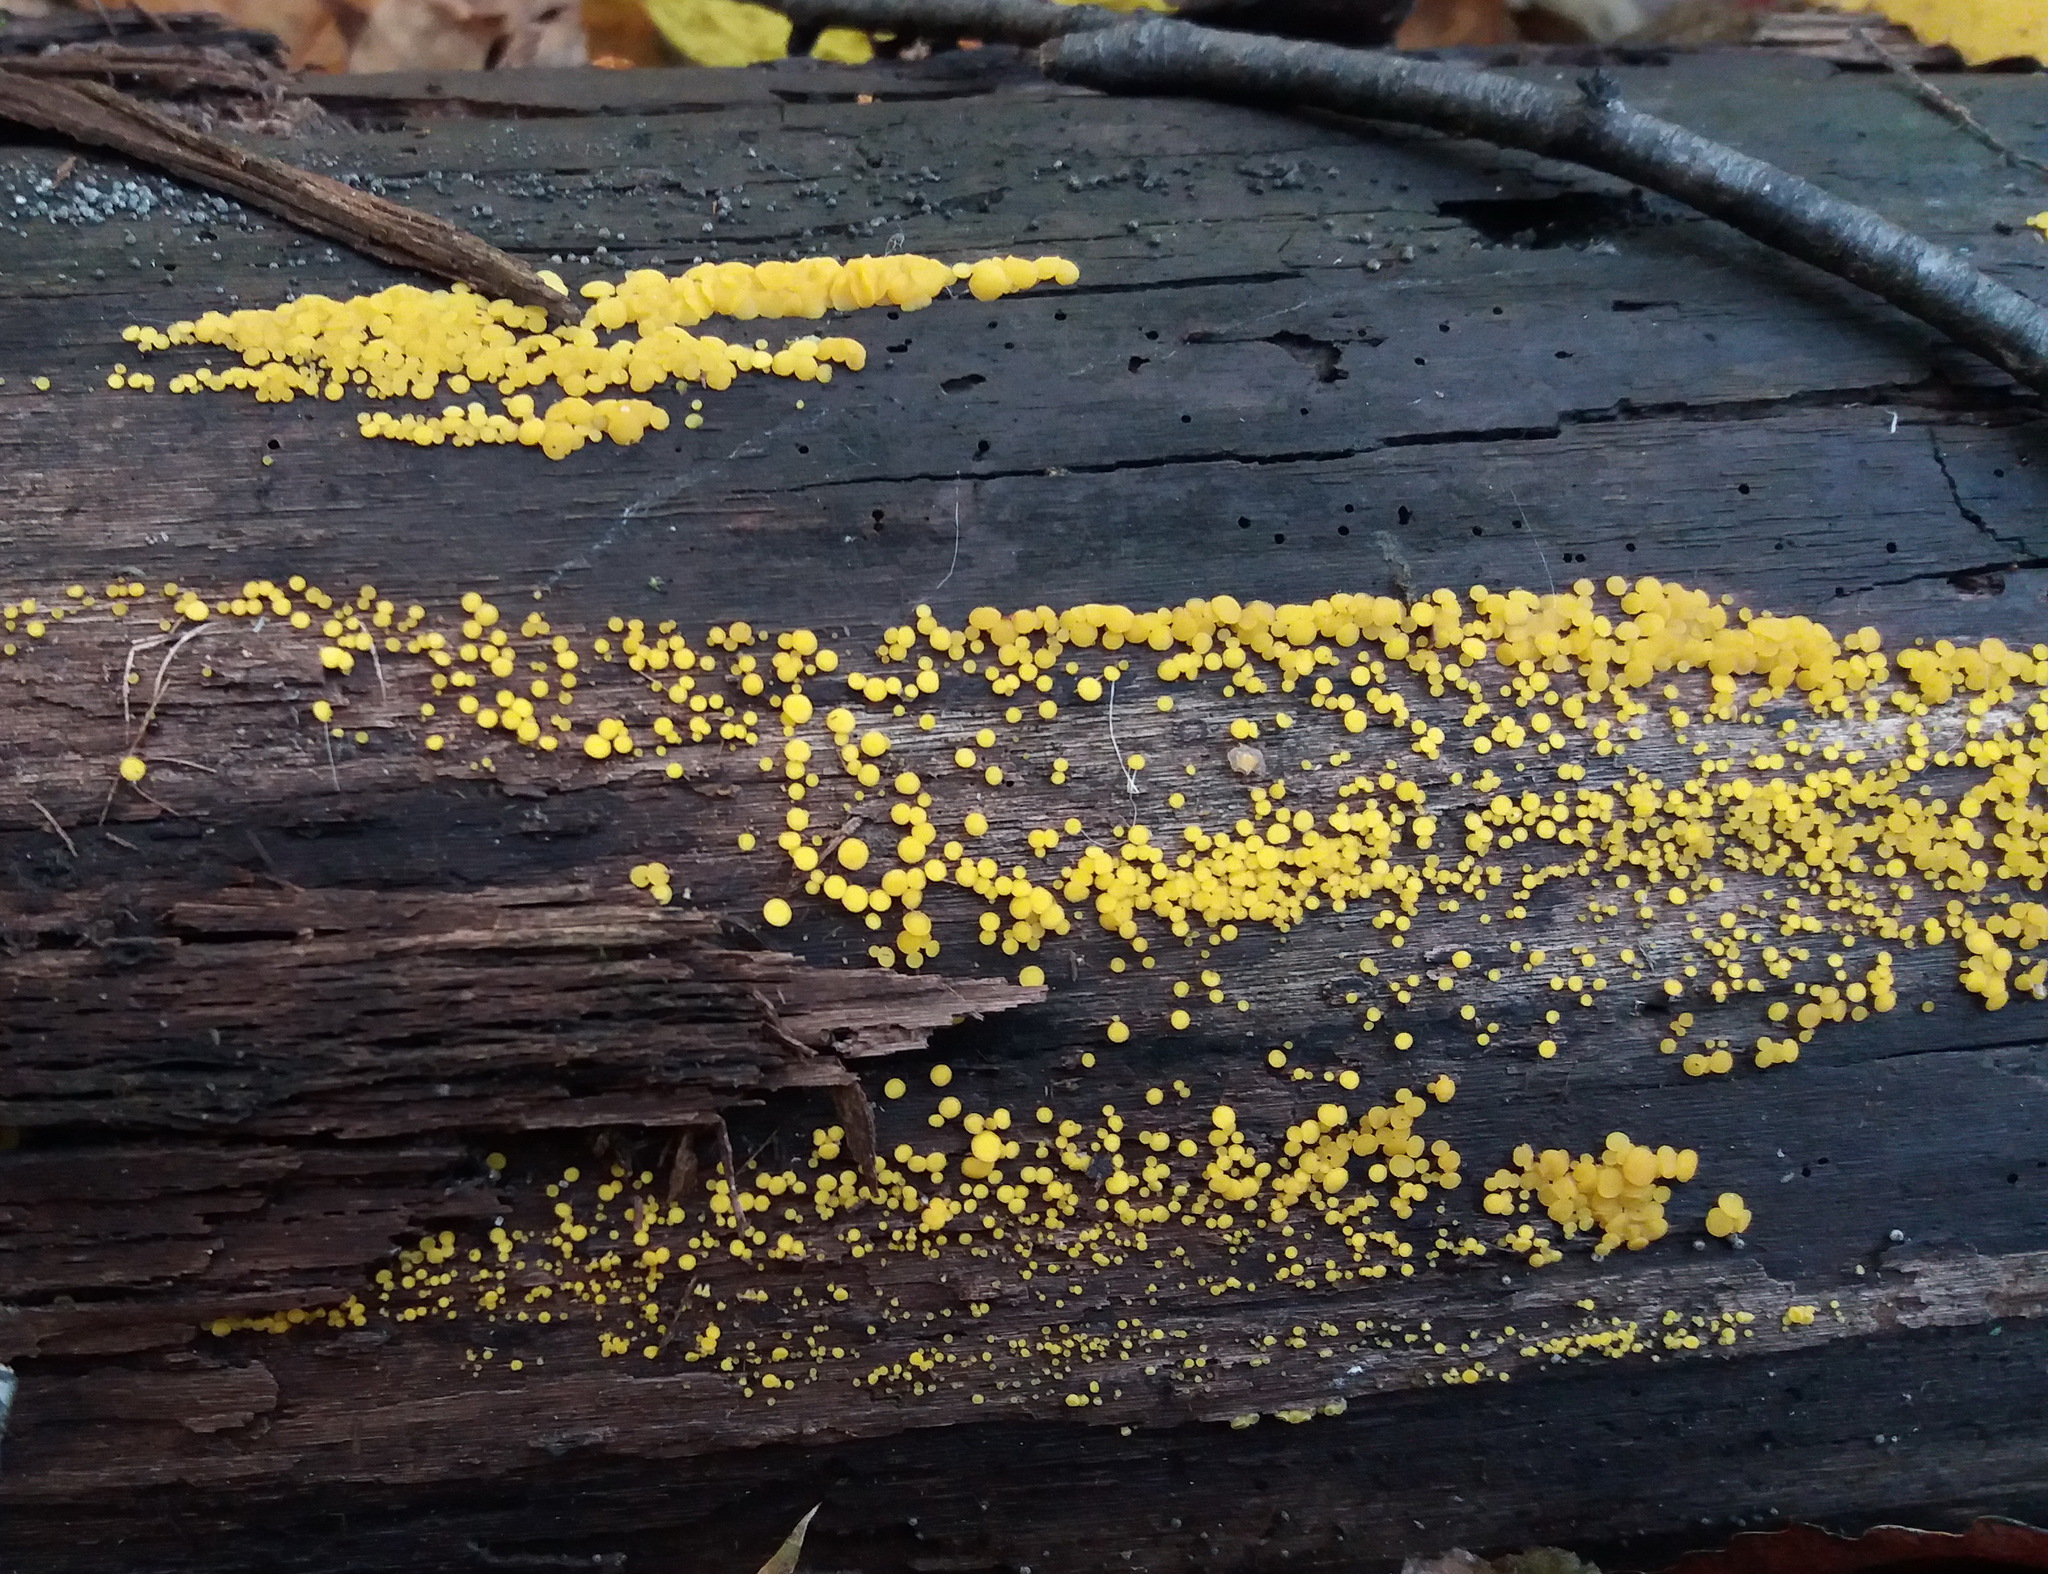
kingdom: Fungi
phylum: Ascomycota
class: Leotiomycetes
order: Helotiales
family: Pezizellaceae
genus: Calycina
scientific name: Calycina citrina
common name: Yellow fairy cups
